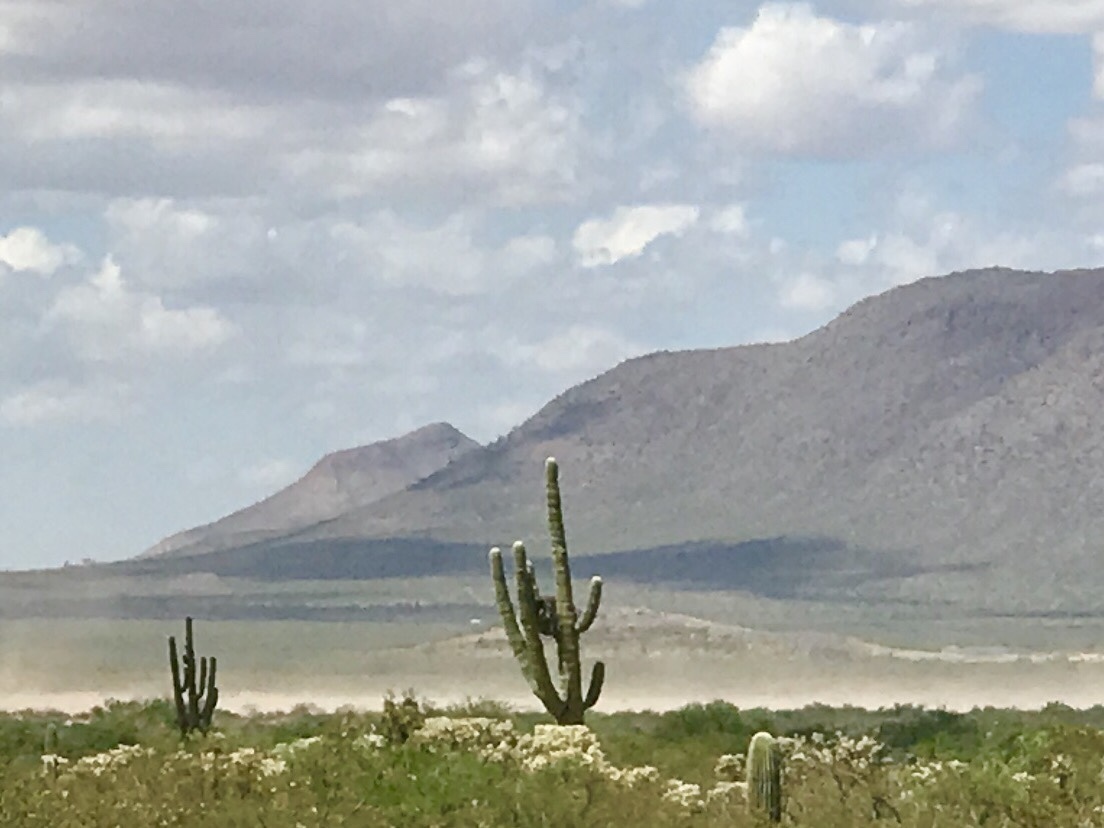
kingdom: Plantae
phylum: Tracheophyta
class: Magnoliopsida
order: Caryophyllales
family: Cactaceae
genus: Carnegiea
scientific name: Carnegiea gigantea
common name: Saguaro
